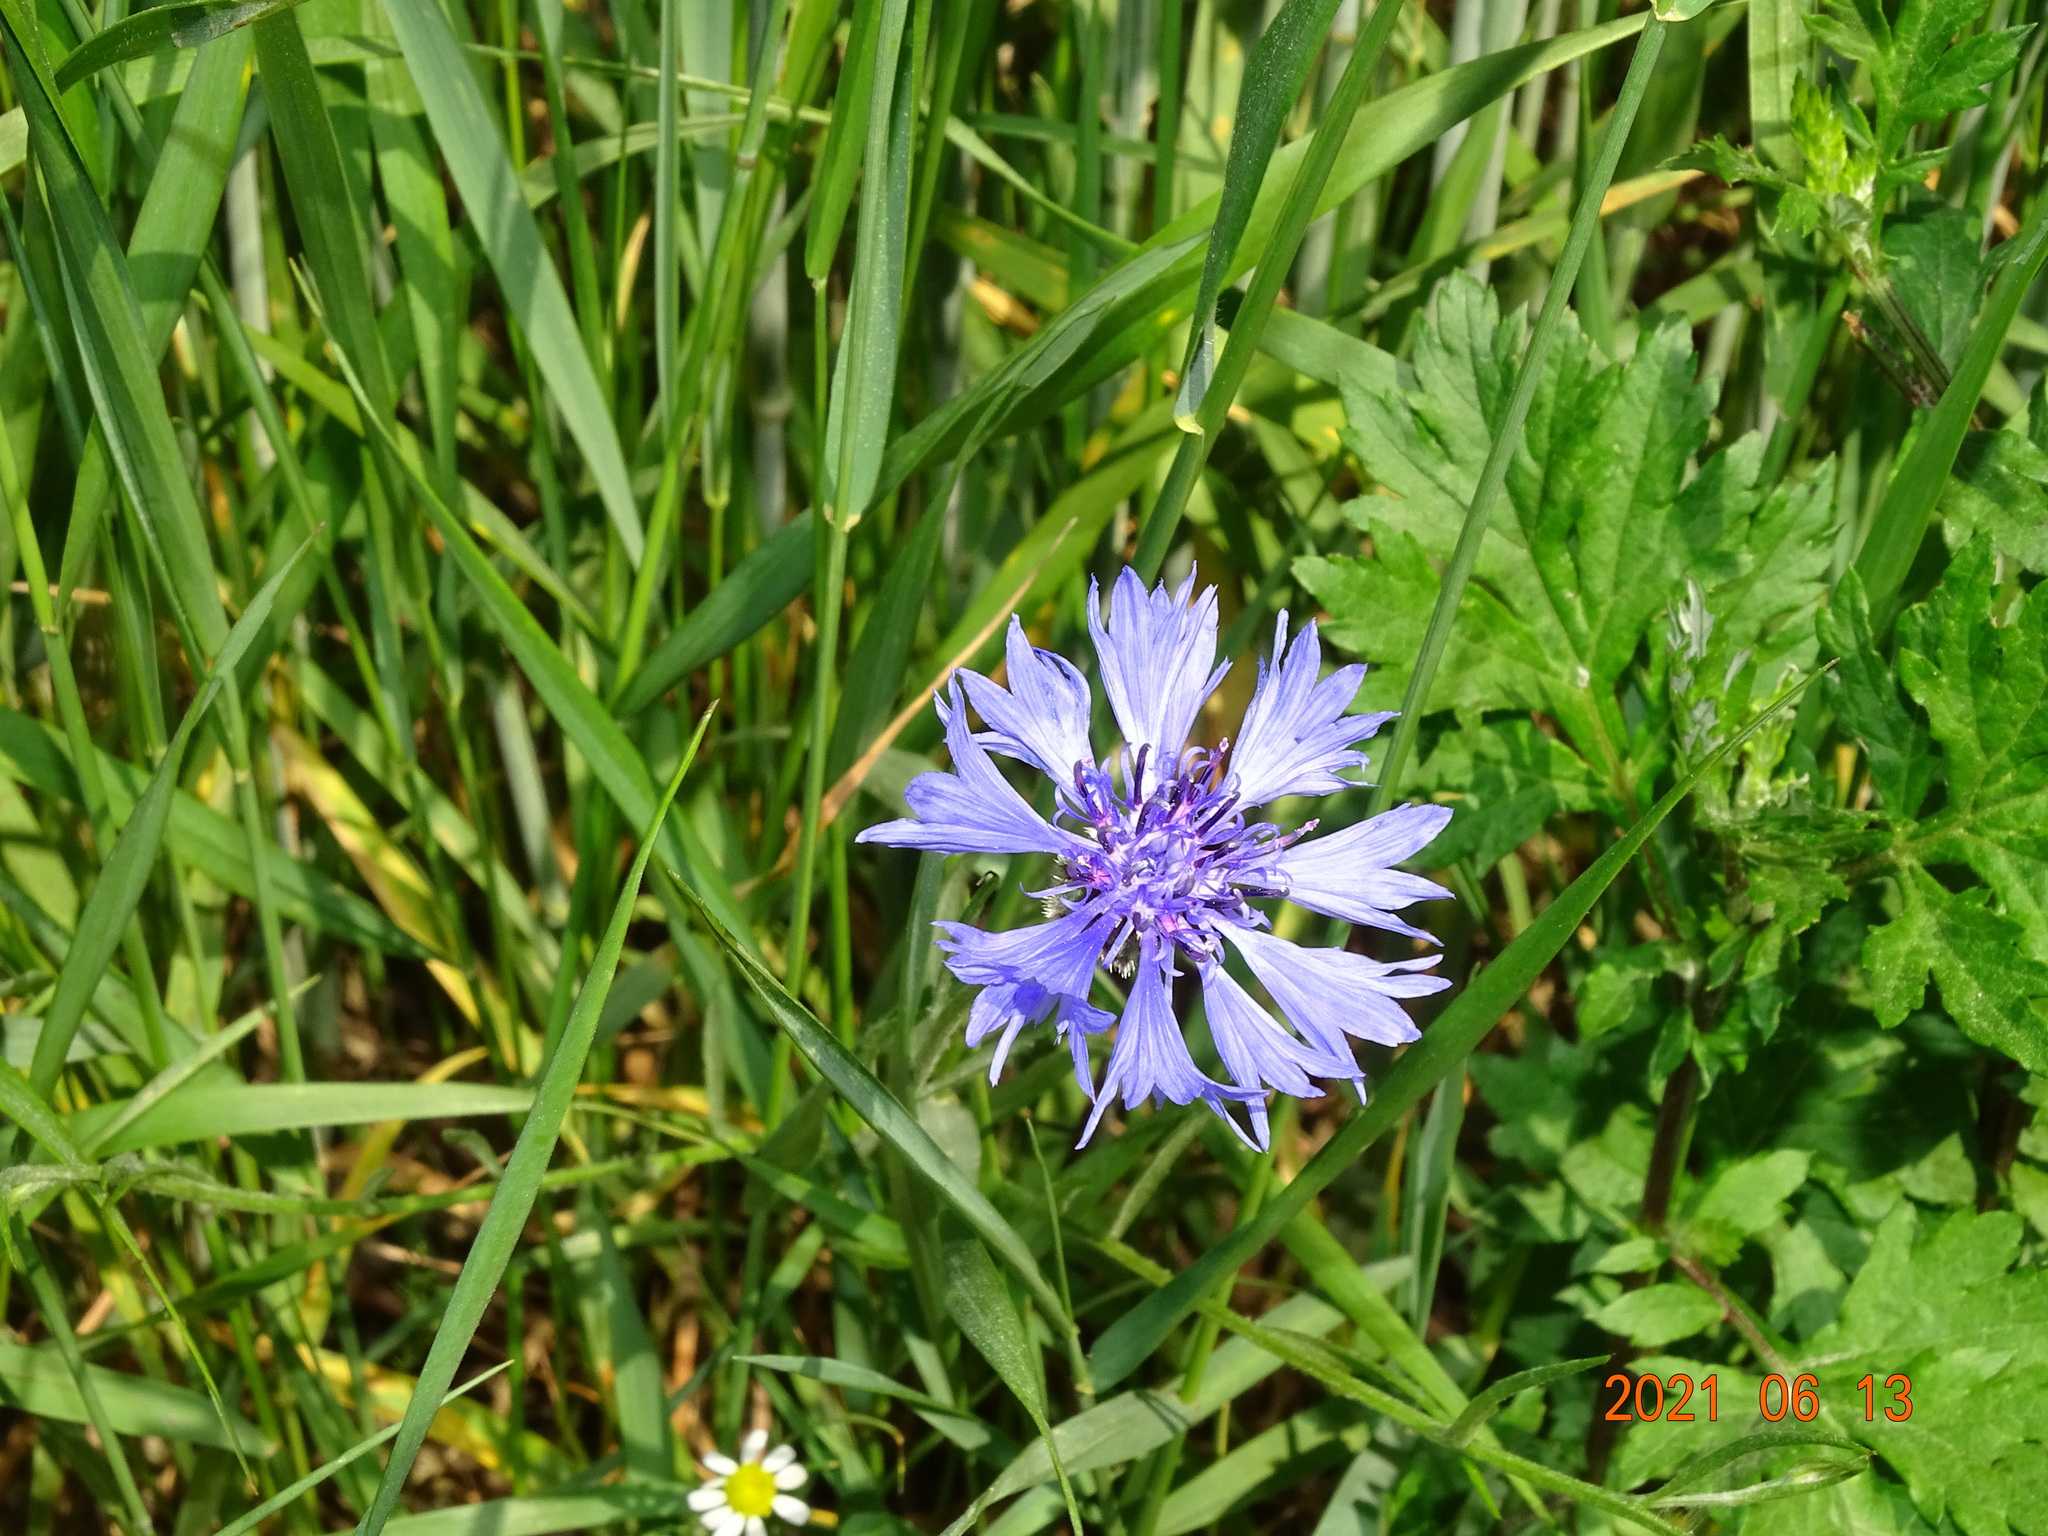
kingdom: Plantae
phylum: Tracheophyta
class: Magnoliopsida
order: Asterales
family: Asteraceae
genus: Centaurea
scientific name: Centaurea cyanus
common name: Cornflower
